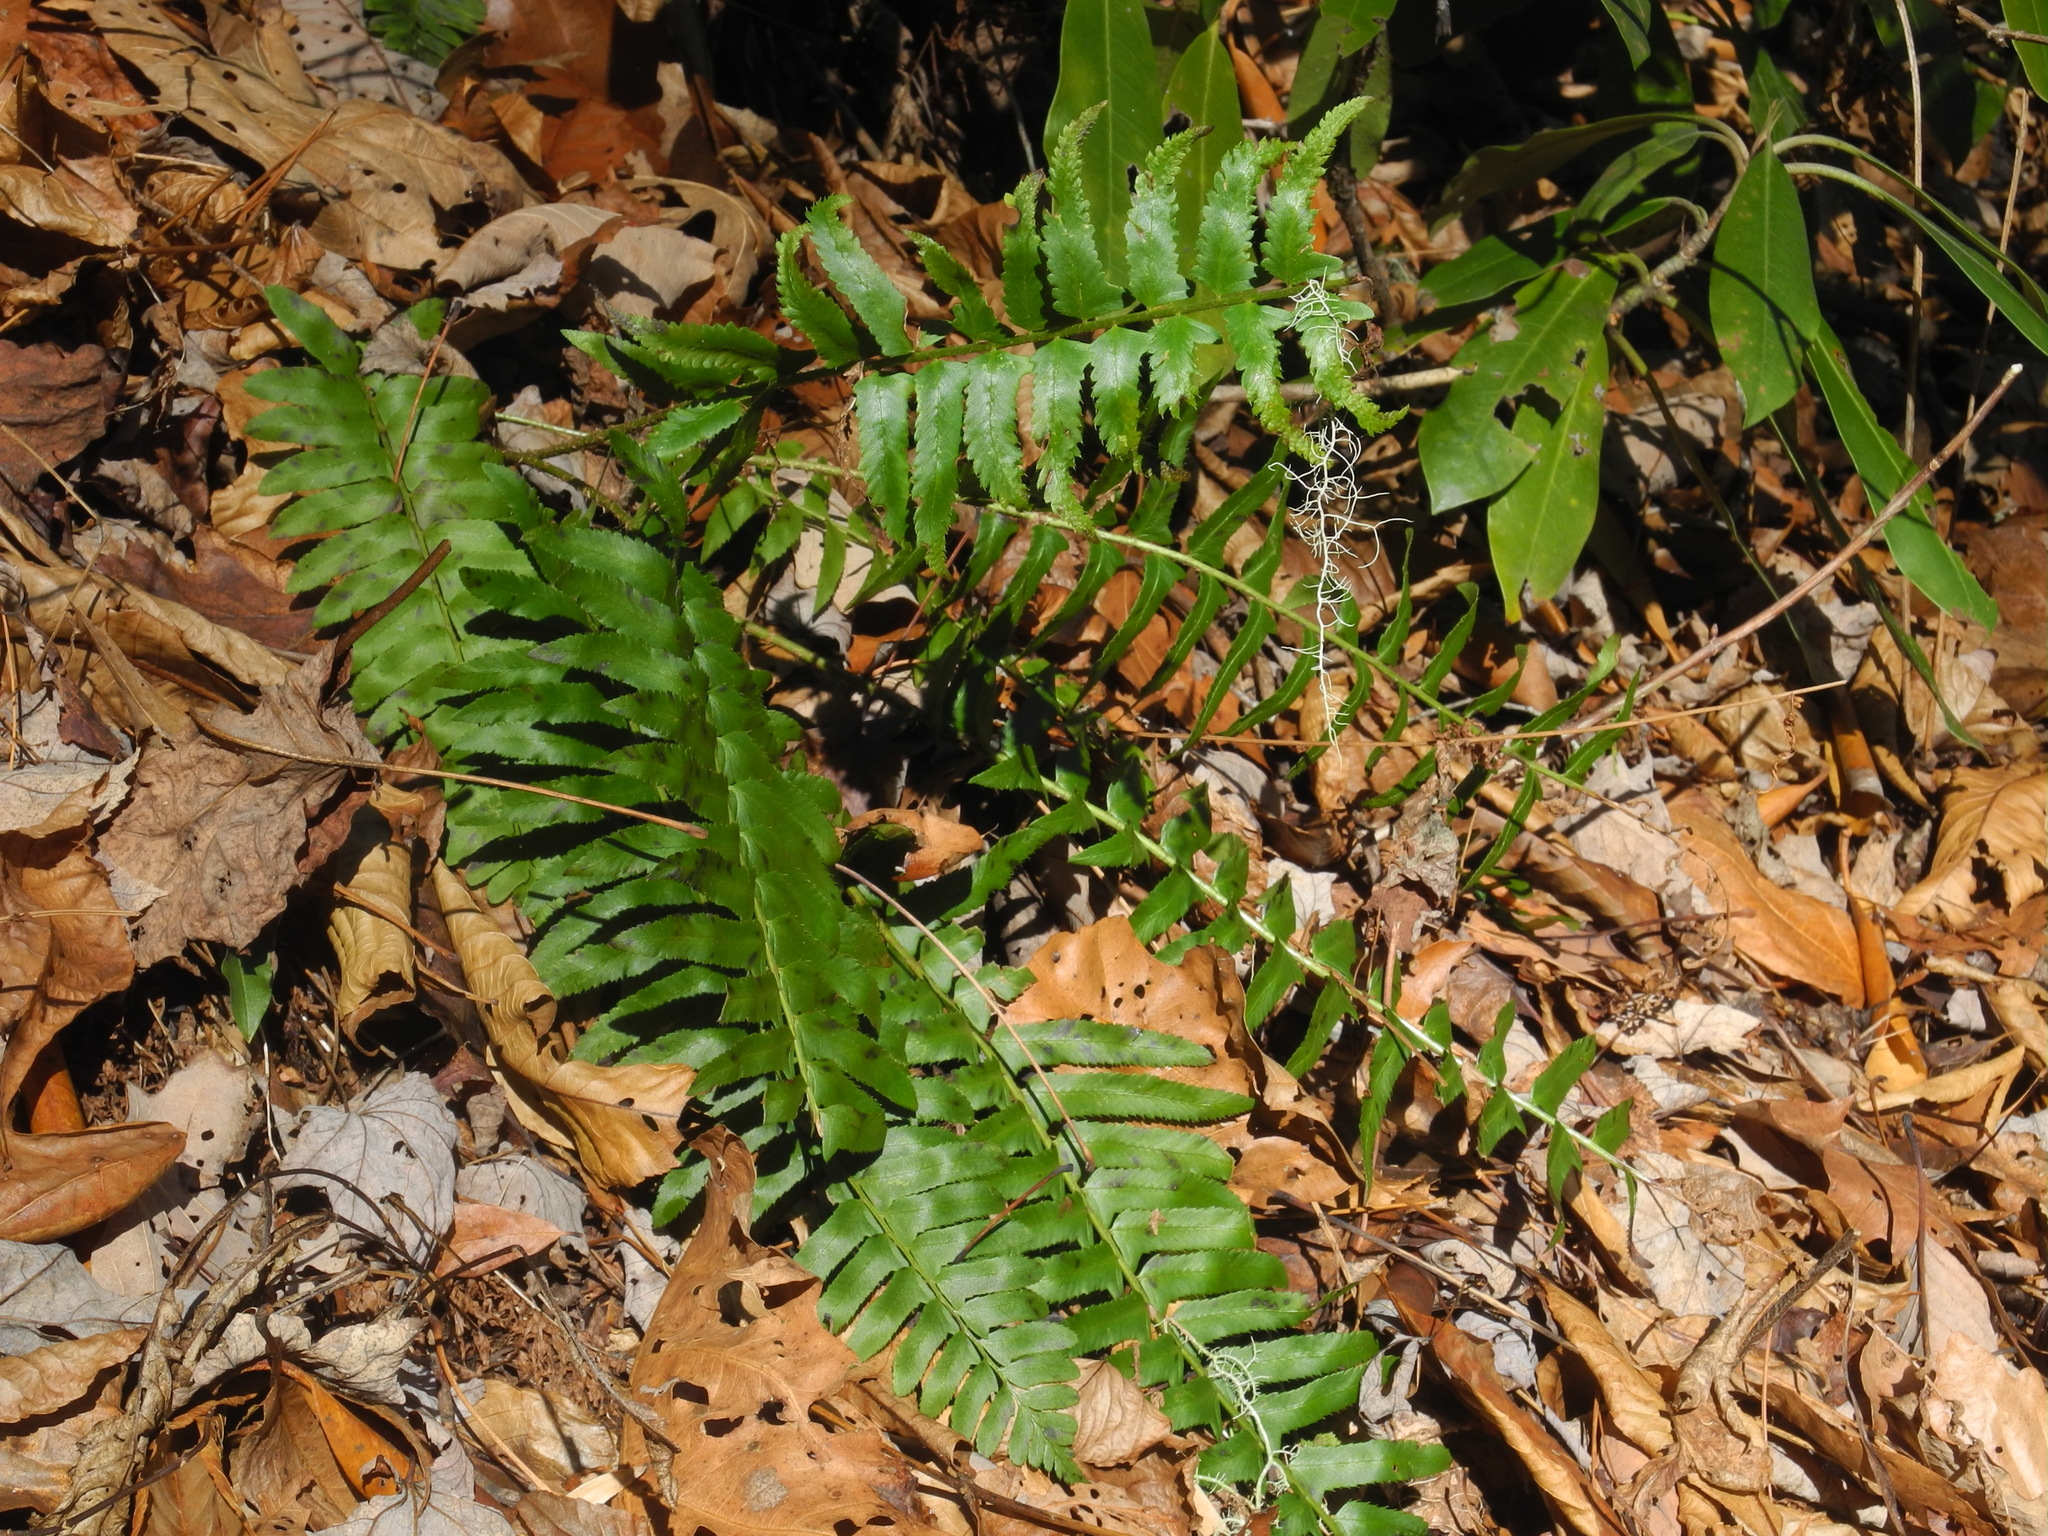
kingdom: Plantae
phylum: Tracheophyta
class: Polypodiopsida
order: Polypodiales
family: Dryopteridaceae
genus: Polystichum
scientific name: Polystichum acrostichoides
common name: Christmas fern
